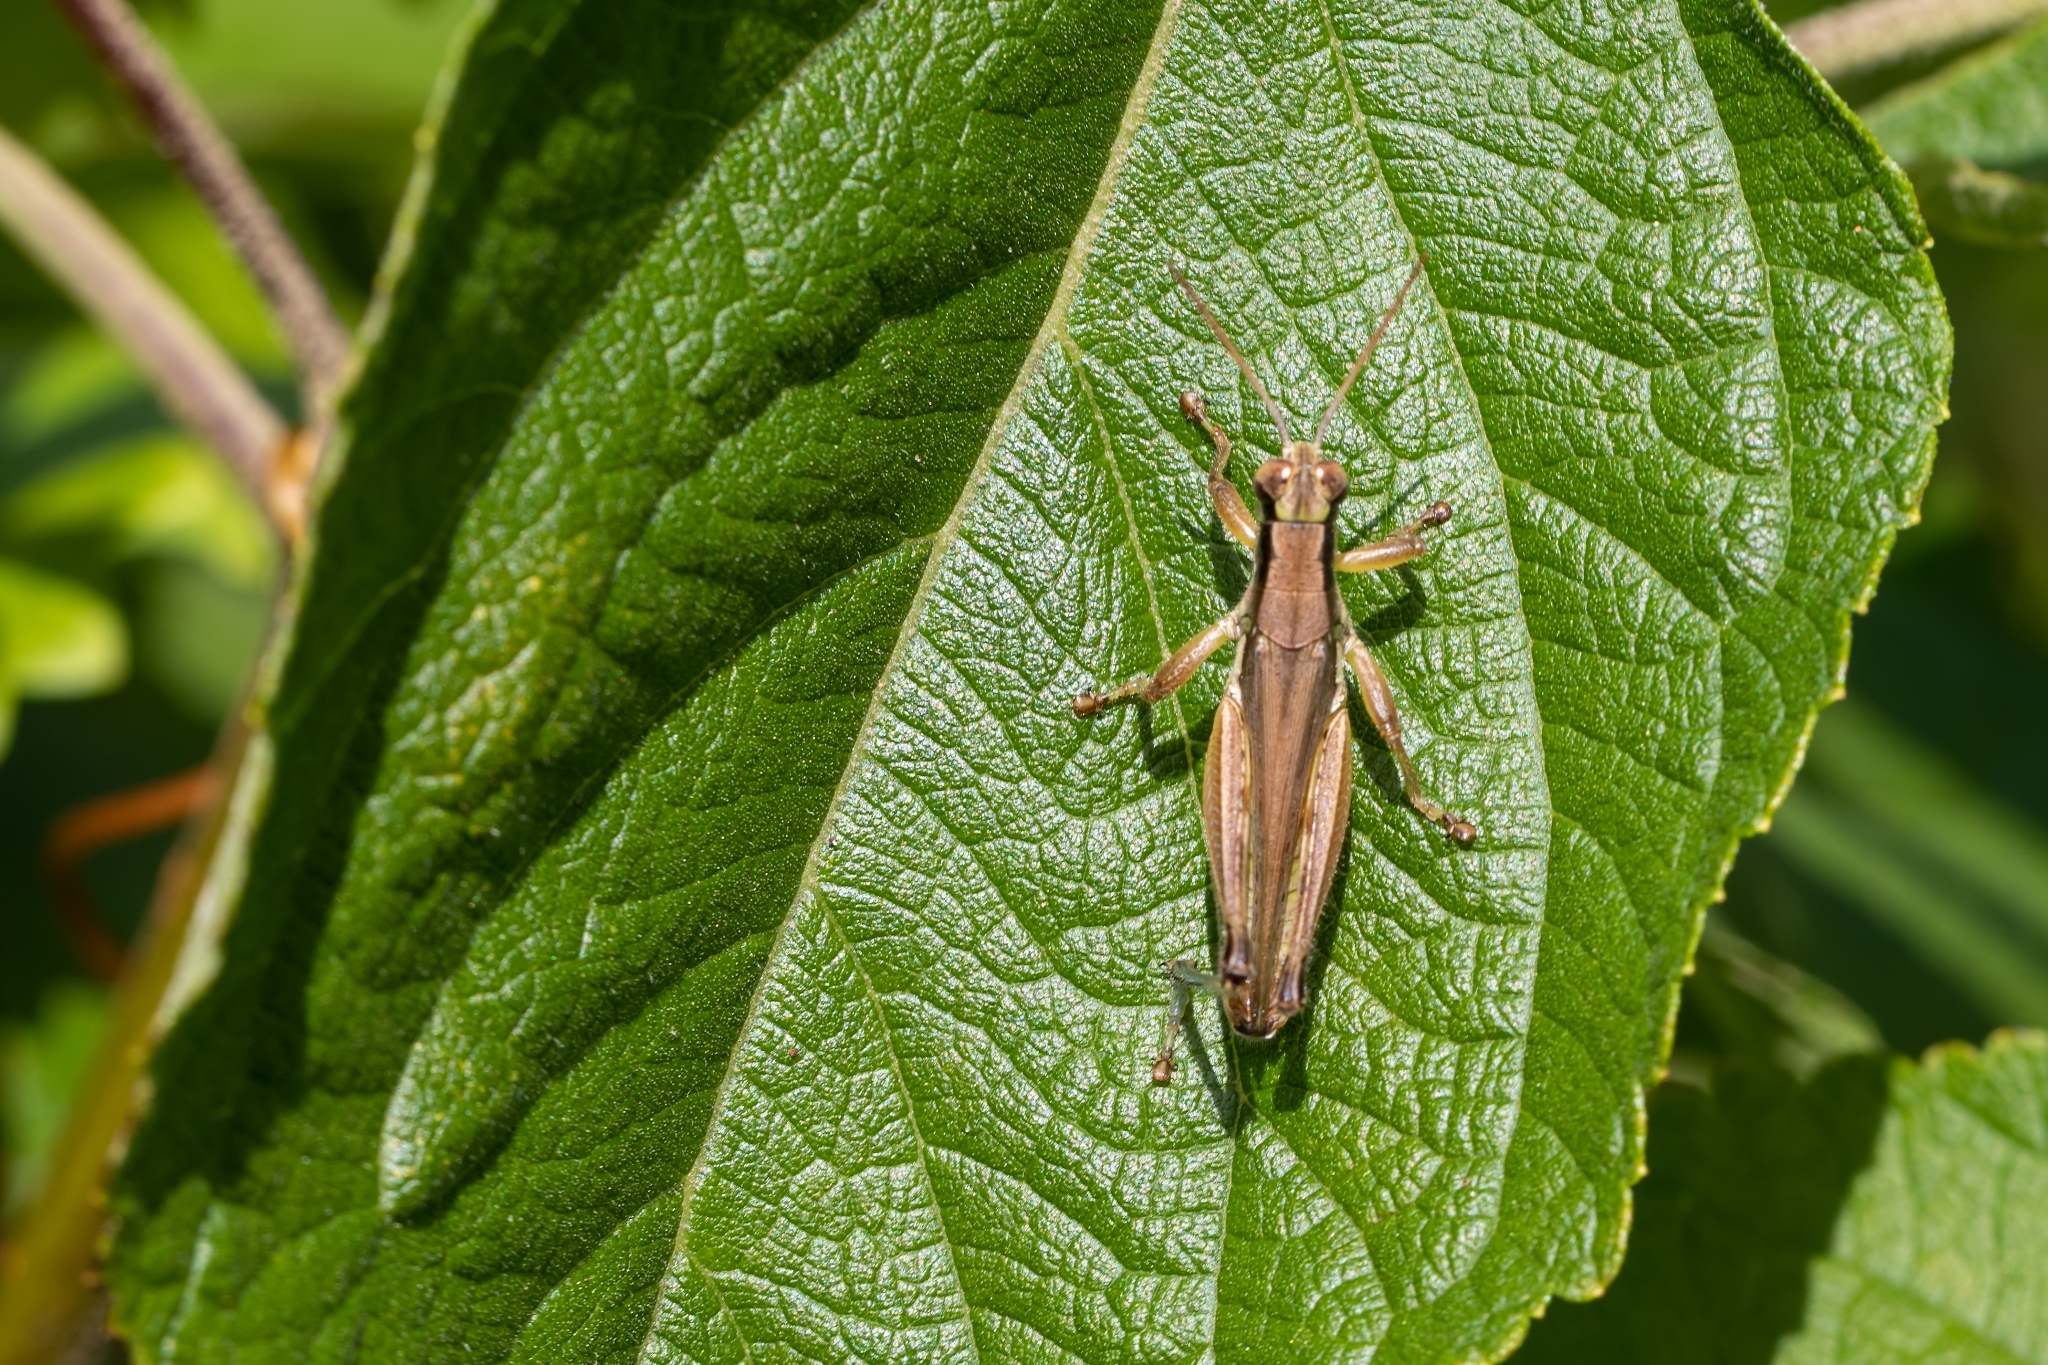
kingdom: Animalia
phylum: Arthropoda
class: Insecta
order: Orthoptera
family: Acrididae
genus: Paroxya
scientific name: Paroxya atlantica
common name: Atlantic grasshopper
